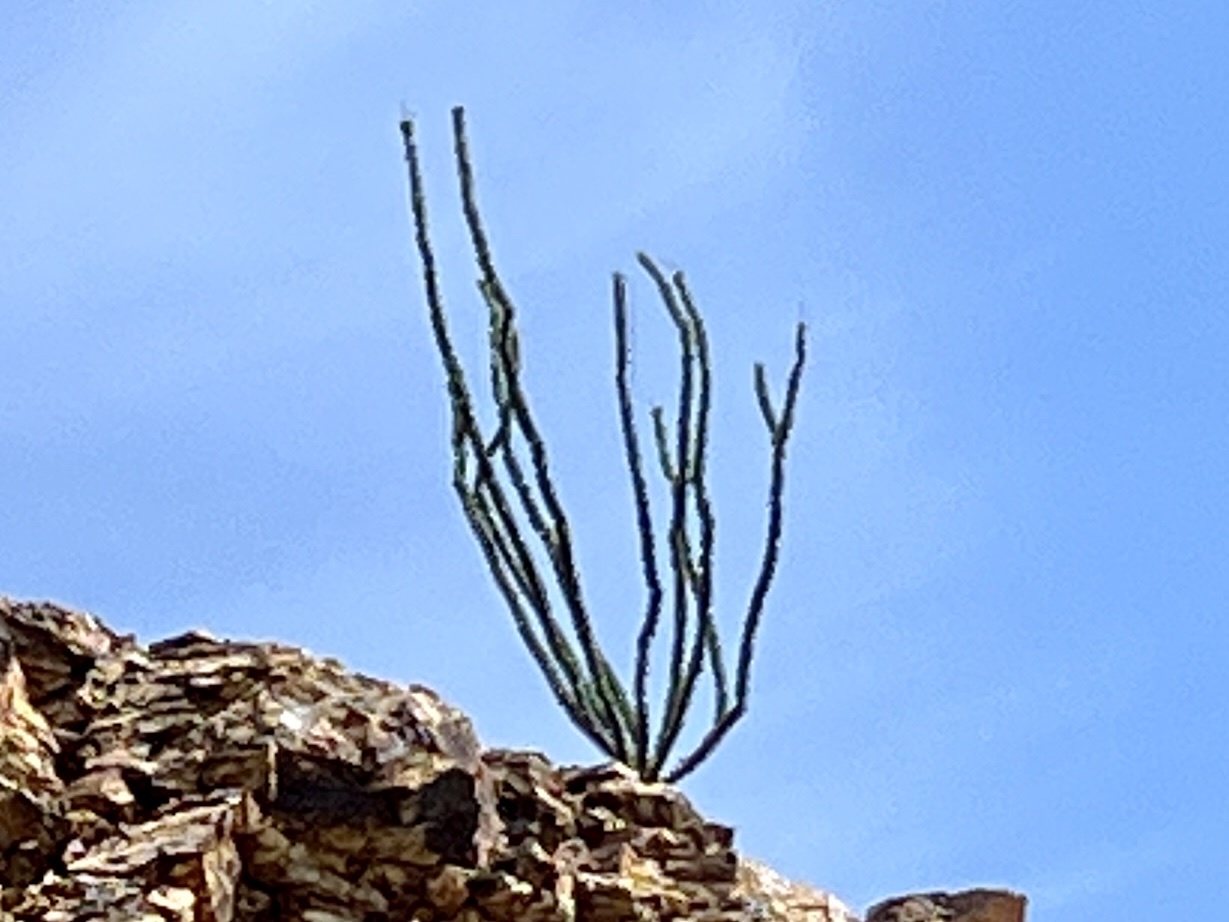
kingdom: Plantae
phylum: Tracheophyta
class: Magnoliopsida
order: Ericales
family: Fouquieriaceae
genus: Fouquieria
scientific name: Fouquieria splendens
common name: Vine-cactus
